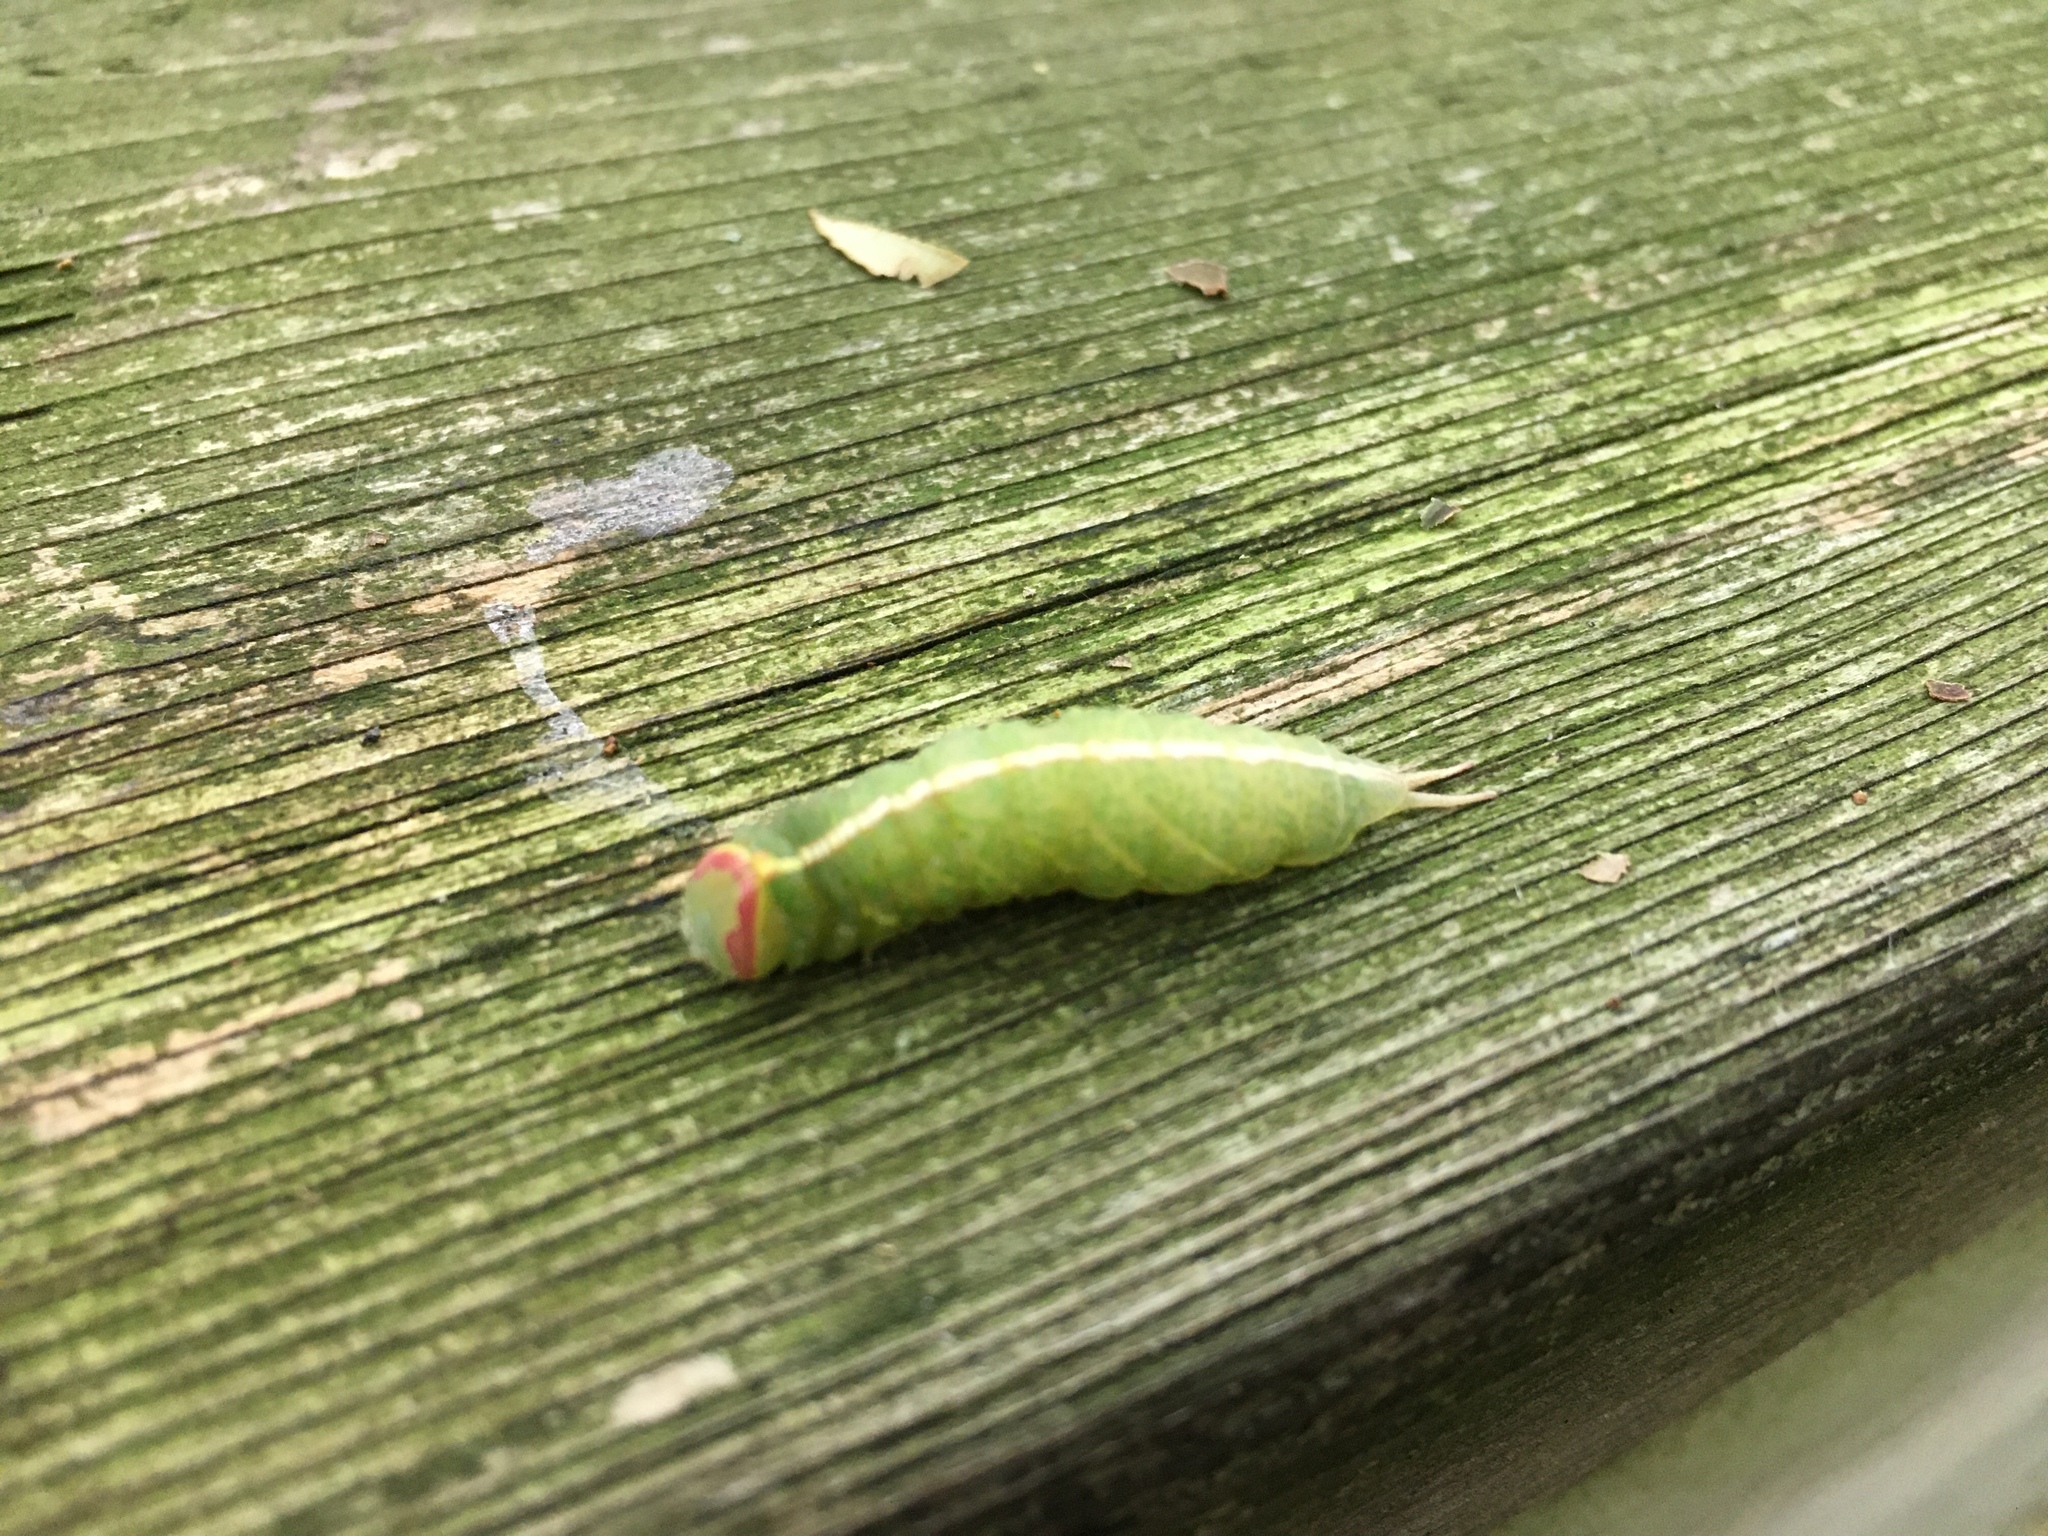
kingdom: Animalia
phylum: Arthropoda
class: Insecta
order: Lepidoptera
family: Notodontidae
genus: Macrurocampa
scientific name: Macrurocampa marthesia
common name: Mottled prominent
